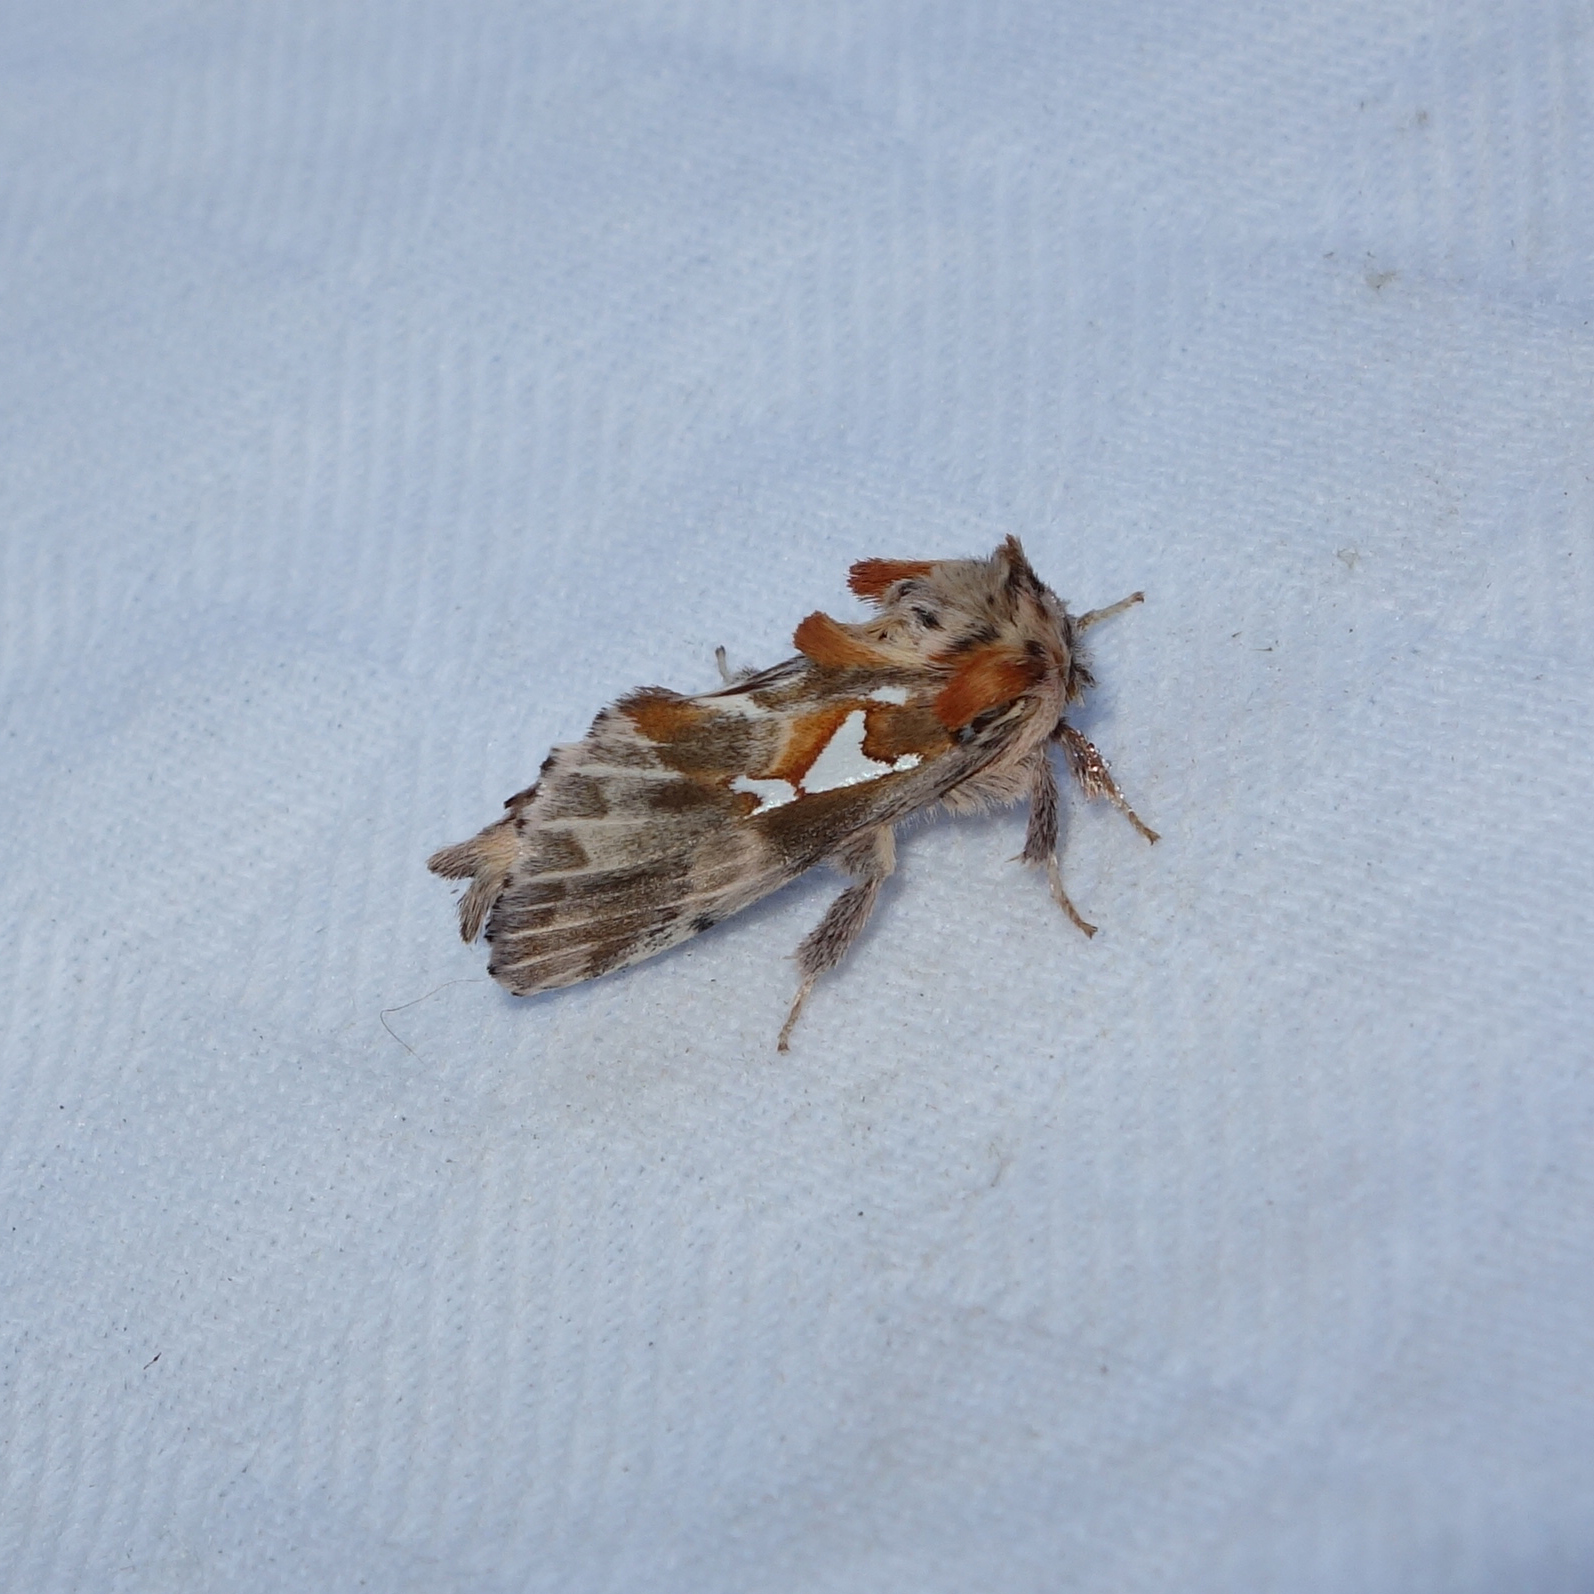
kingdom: Animalia
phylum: Arthropoda
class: Insecta
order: Lepidoptera
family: Notodontidae
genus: Spatalia
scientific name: Spatalia argentina
